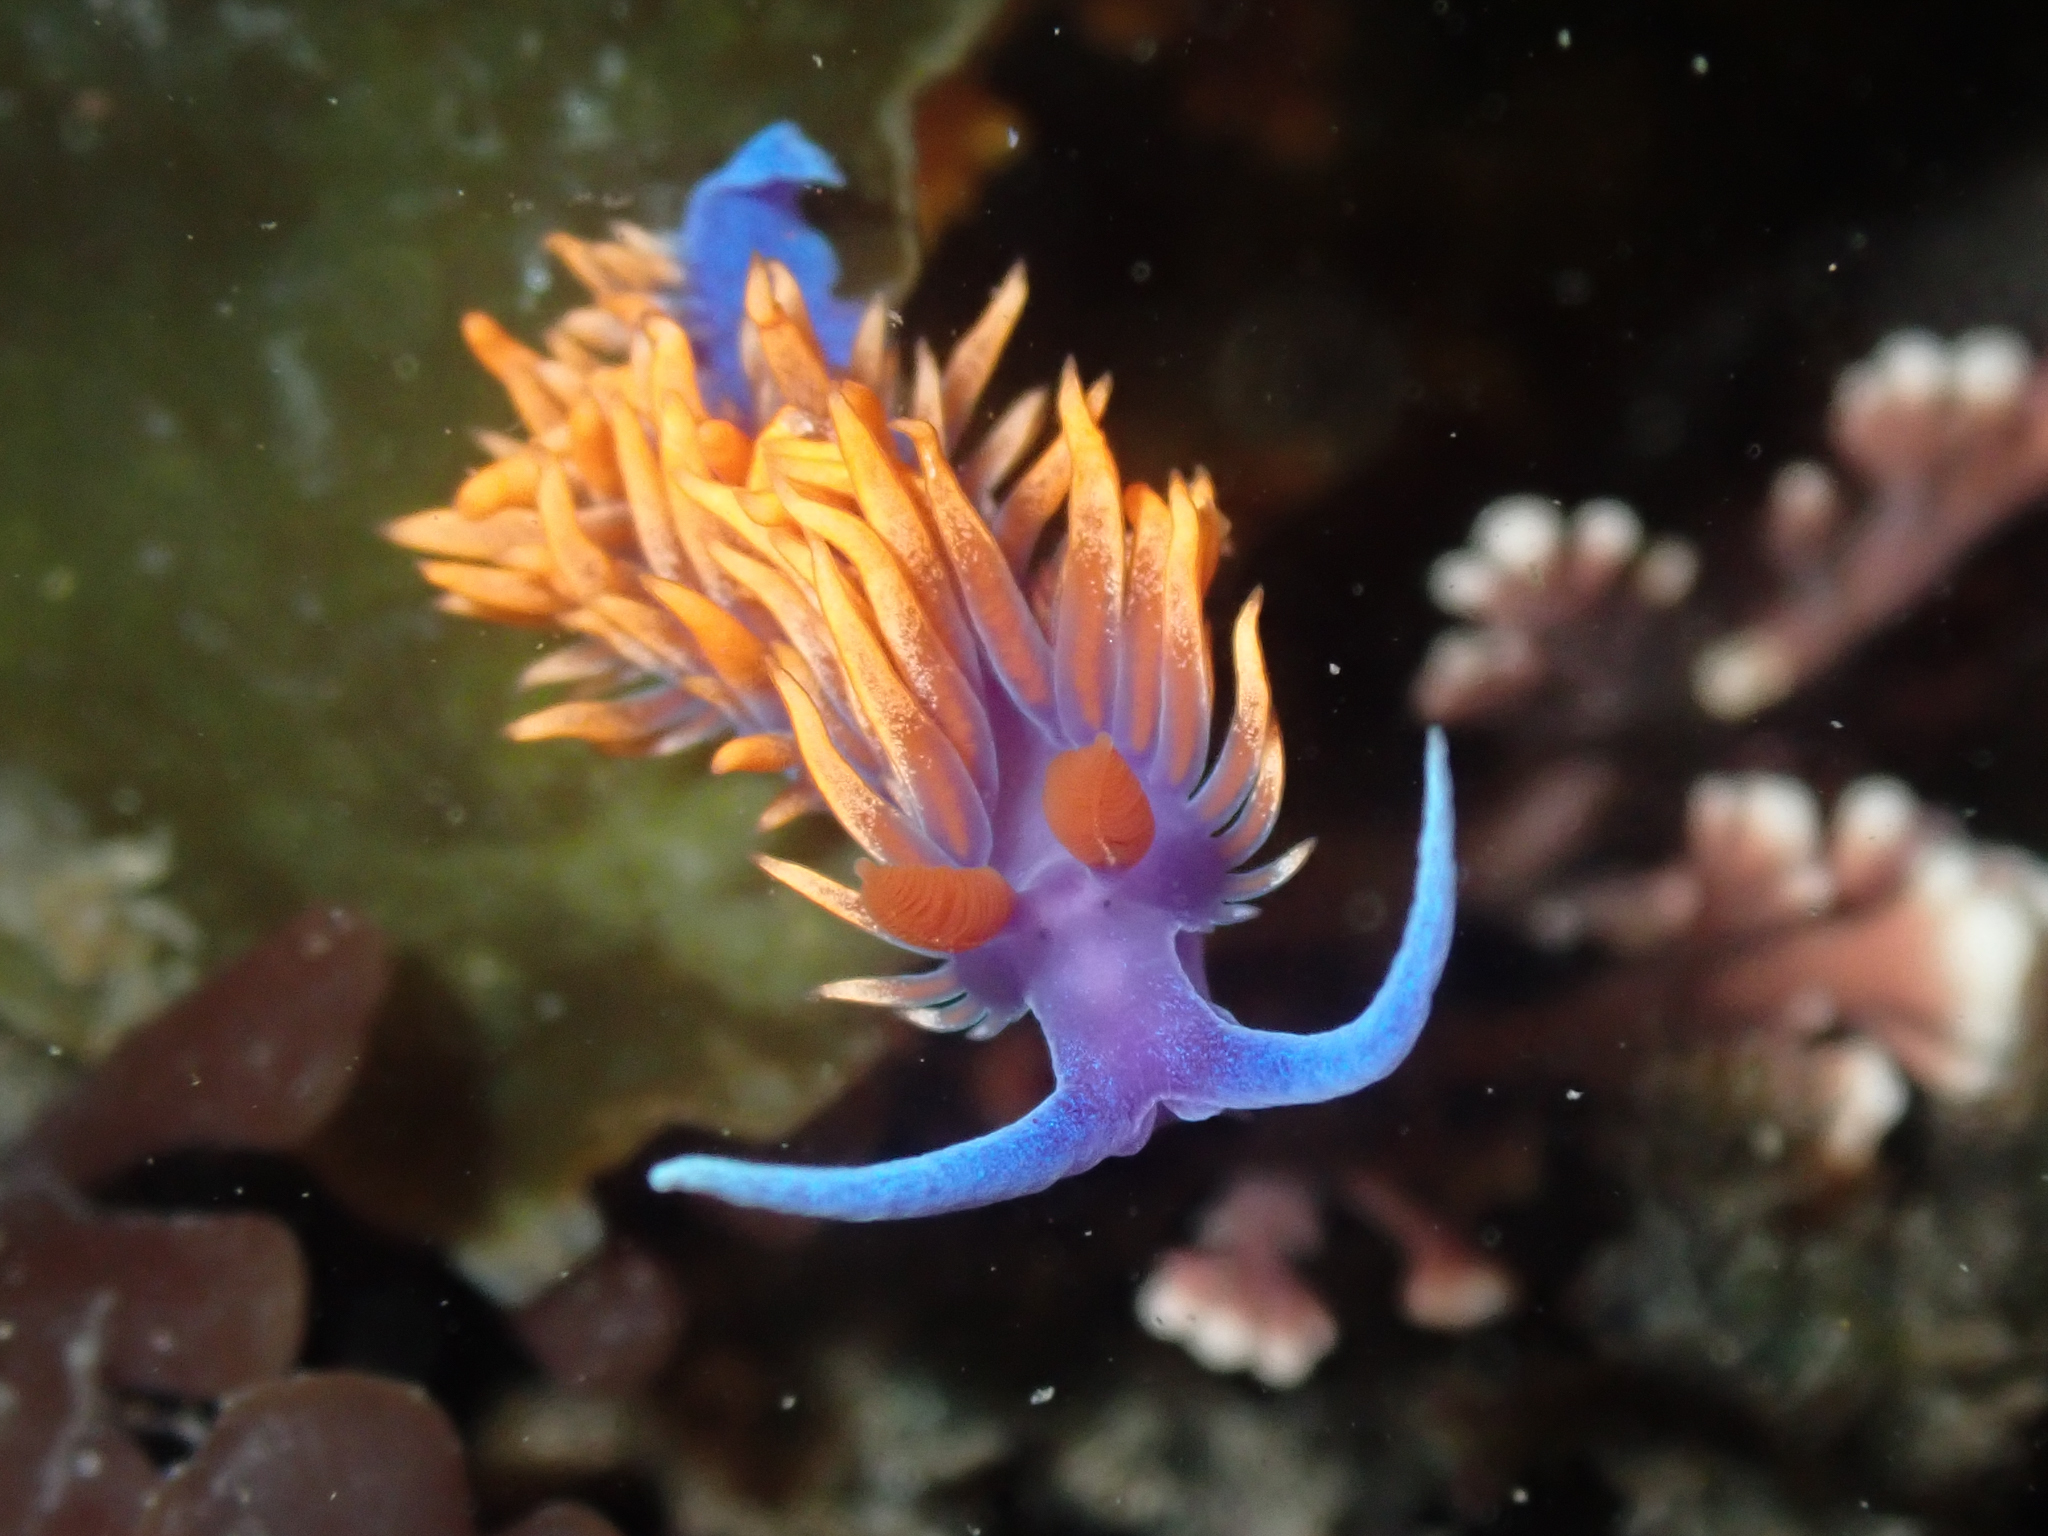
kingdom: Animalia
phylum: Mollusca
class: Gastropoda
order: Nudibranchia
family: Flabellinopsidae
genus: Flabellinopsis
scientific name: Flabellinopsis iodinea
